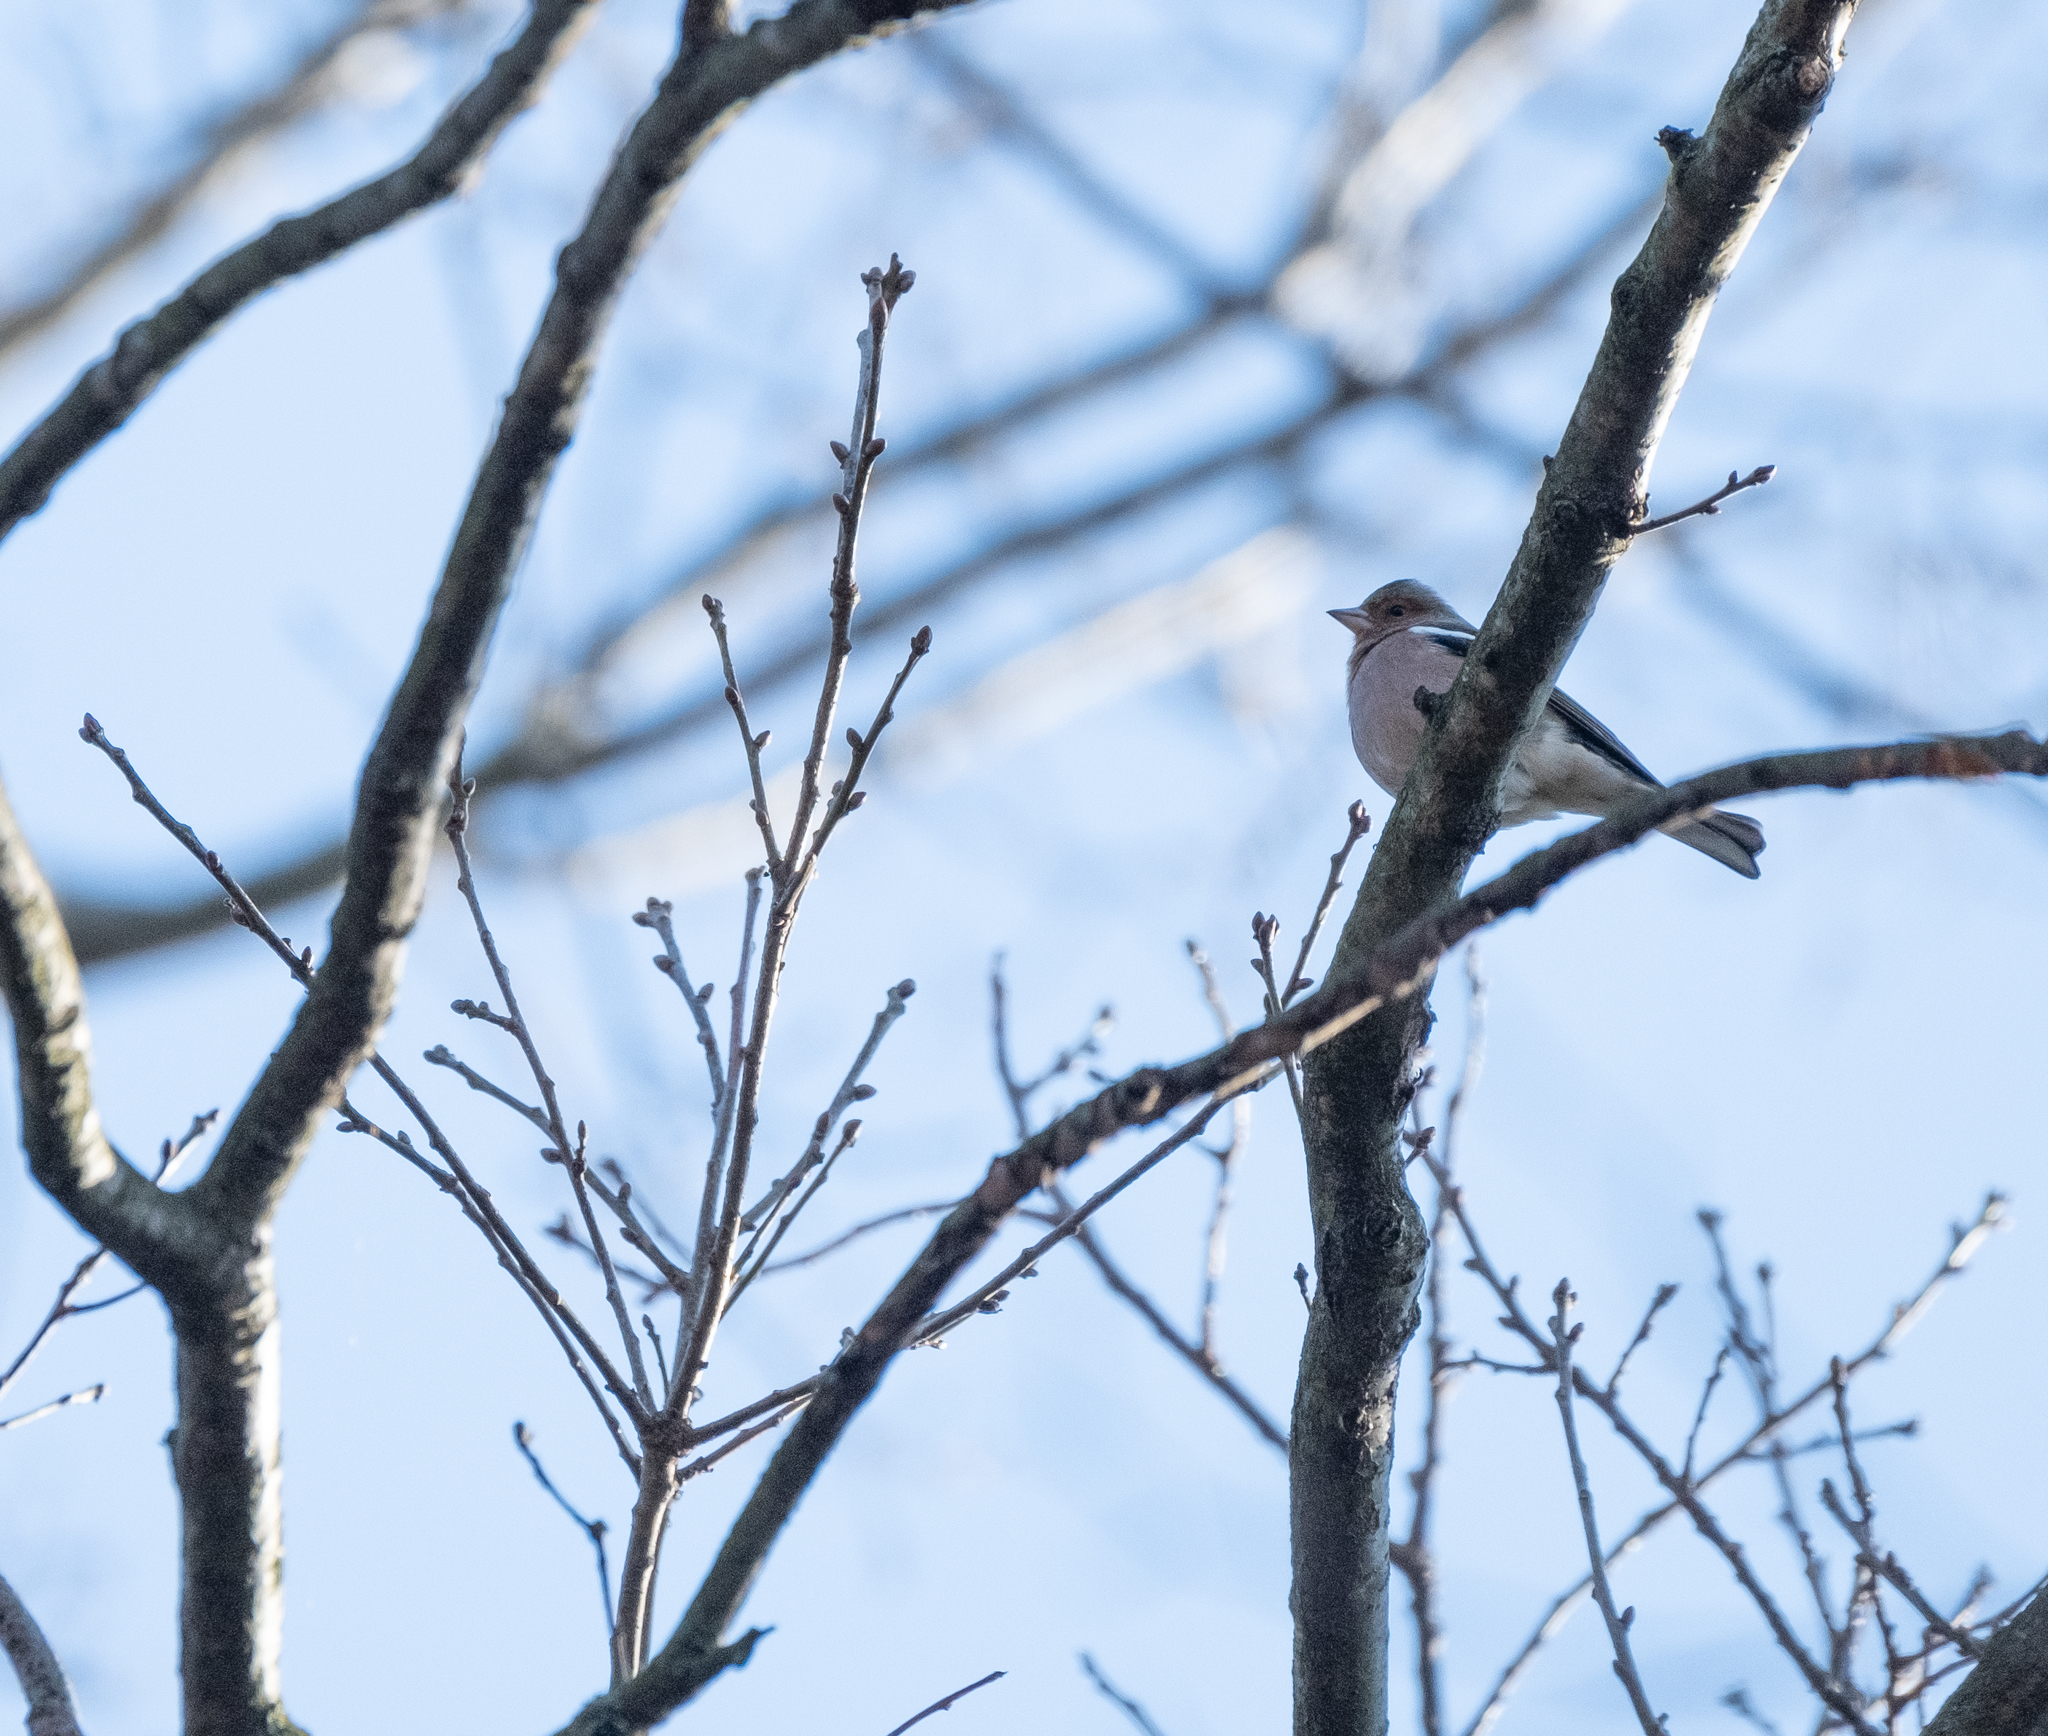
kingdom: Animalia
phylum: Chordata
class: Aves
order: Passeriformes
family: Fringillidae
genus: Fringilla
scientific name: Fringilla coelebs
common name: Common chaffinch
